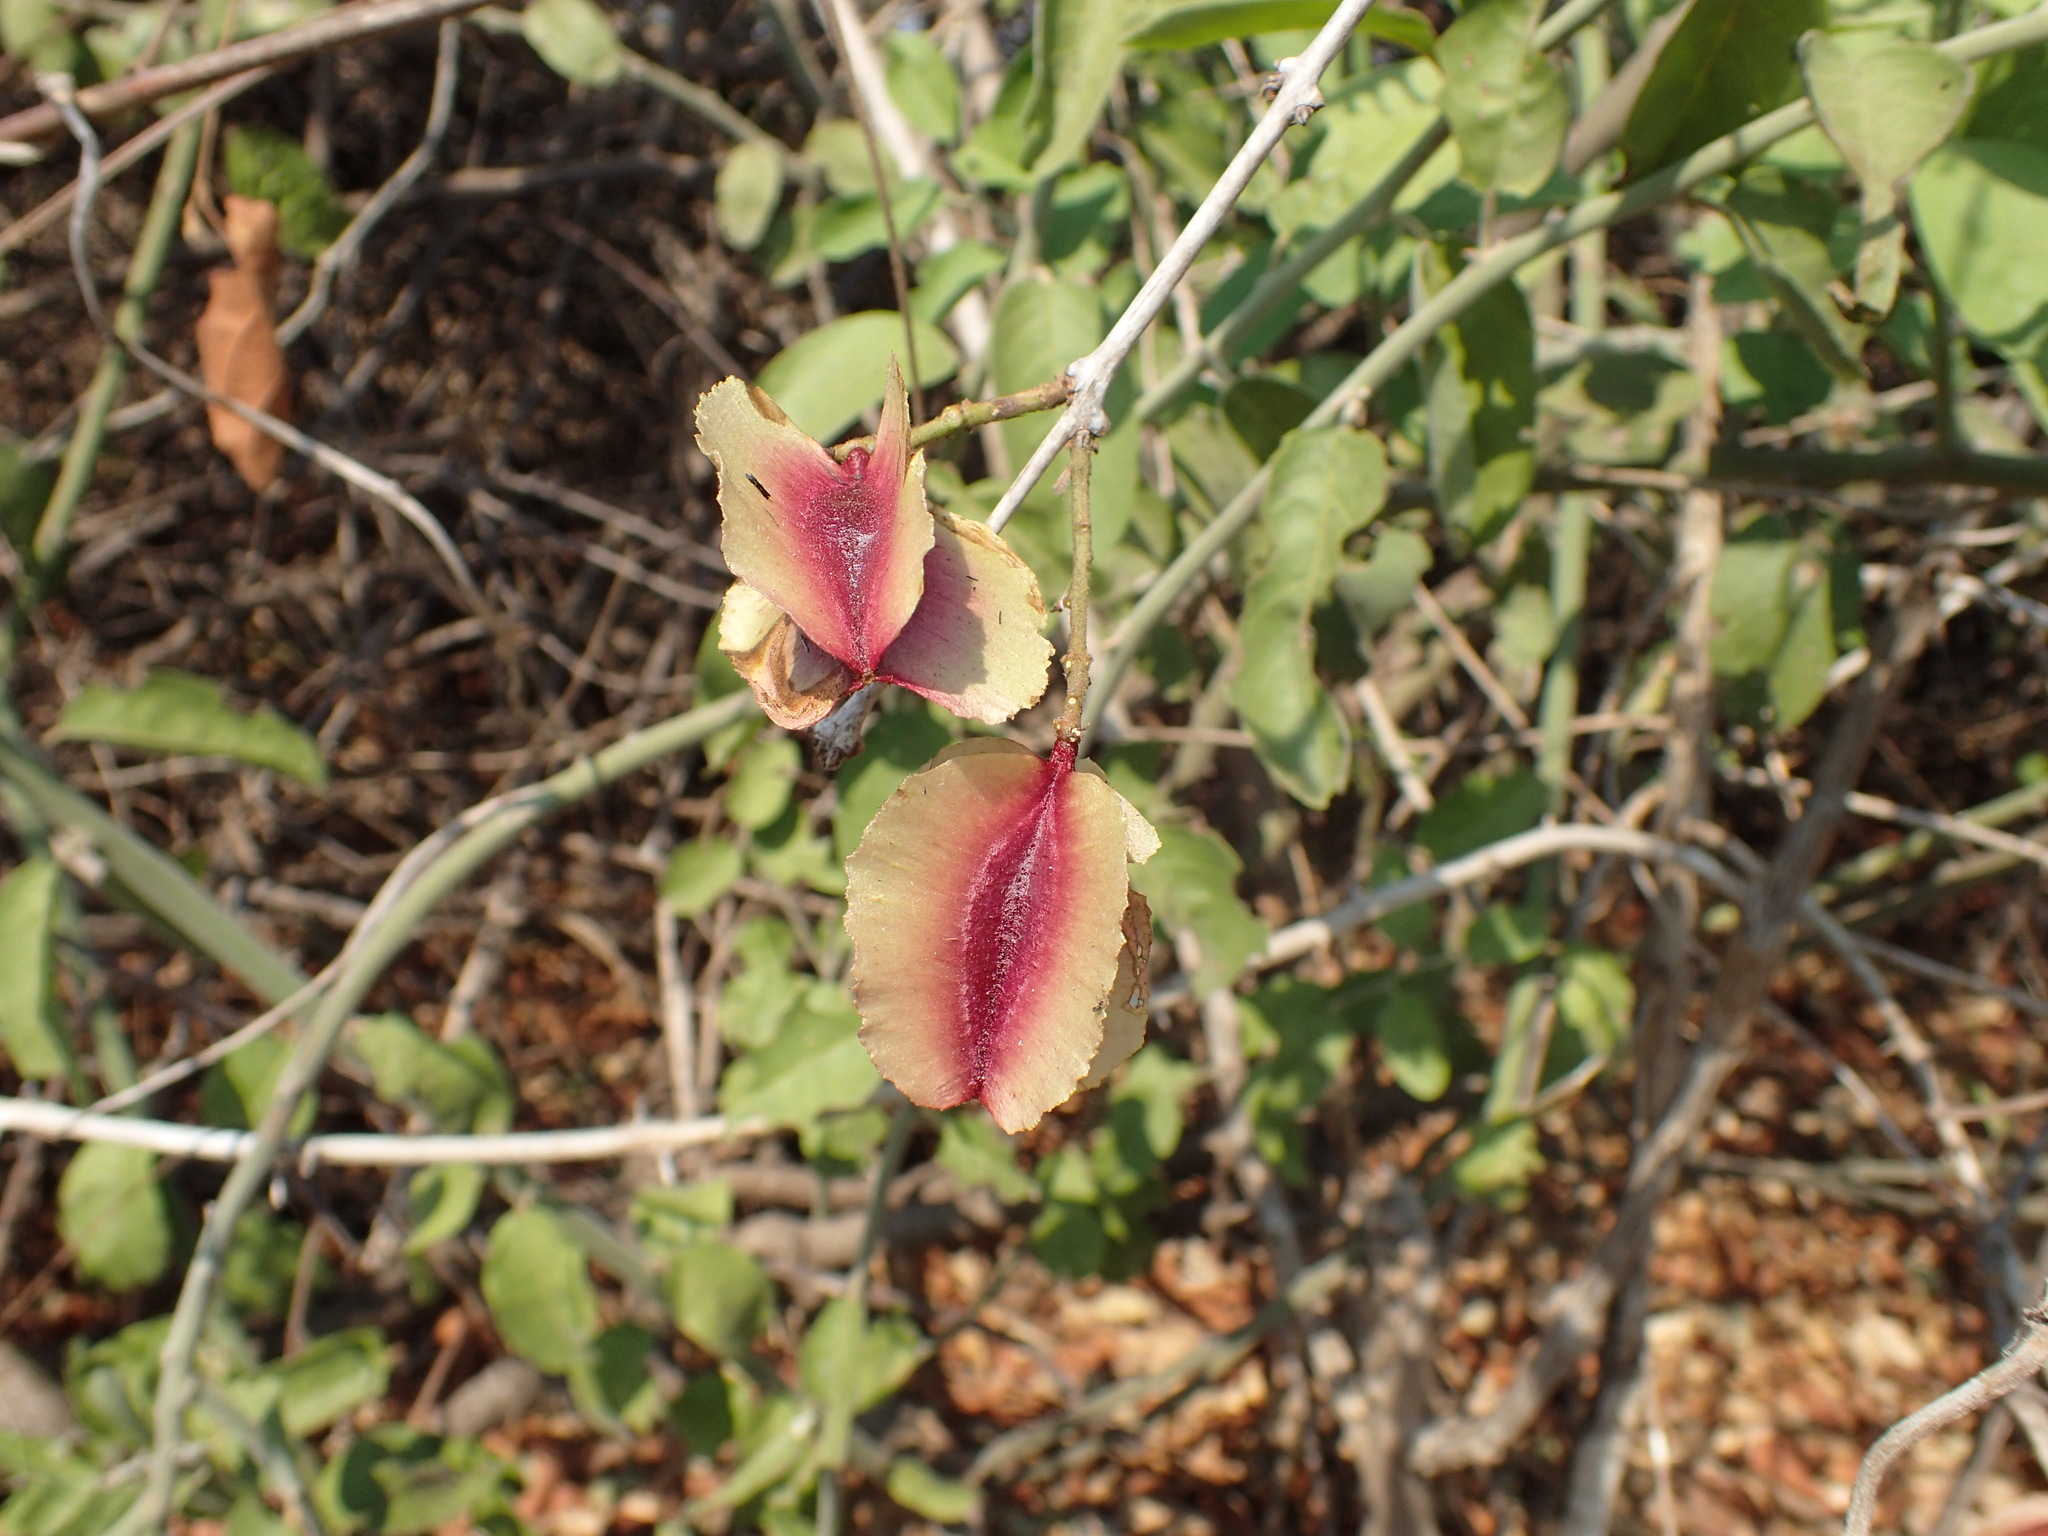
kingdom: Plantae
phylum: Tracheophyta
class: Magnoliopsida
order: Myrtales
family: Combretaceae
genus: Combretum
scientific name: Combretum goetzei
